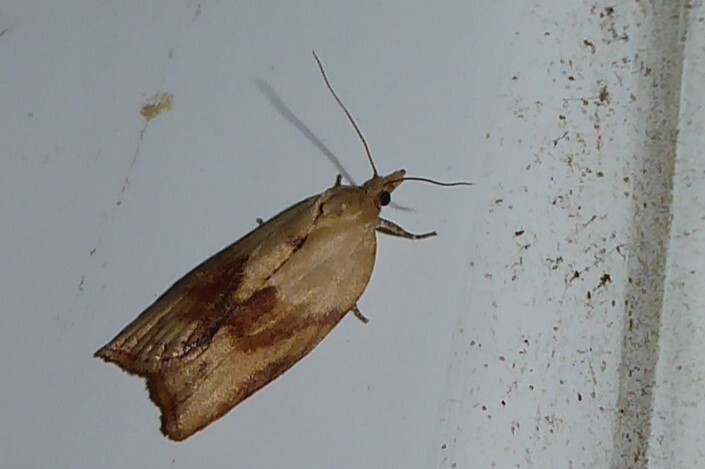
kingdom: Animalia
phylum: Arthropoda
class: Insecta
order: Lepidoptera
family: Tortricidae
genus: Epiphyas
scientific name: Epiphyas postvittana
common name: Light brown apple moth
